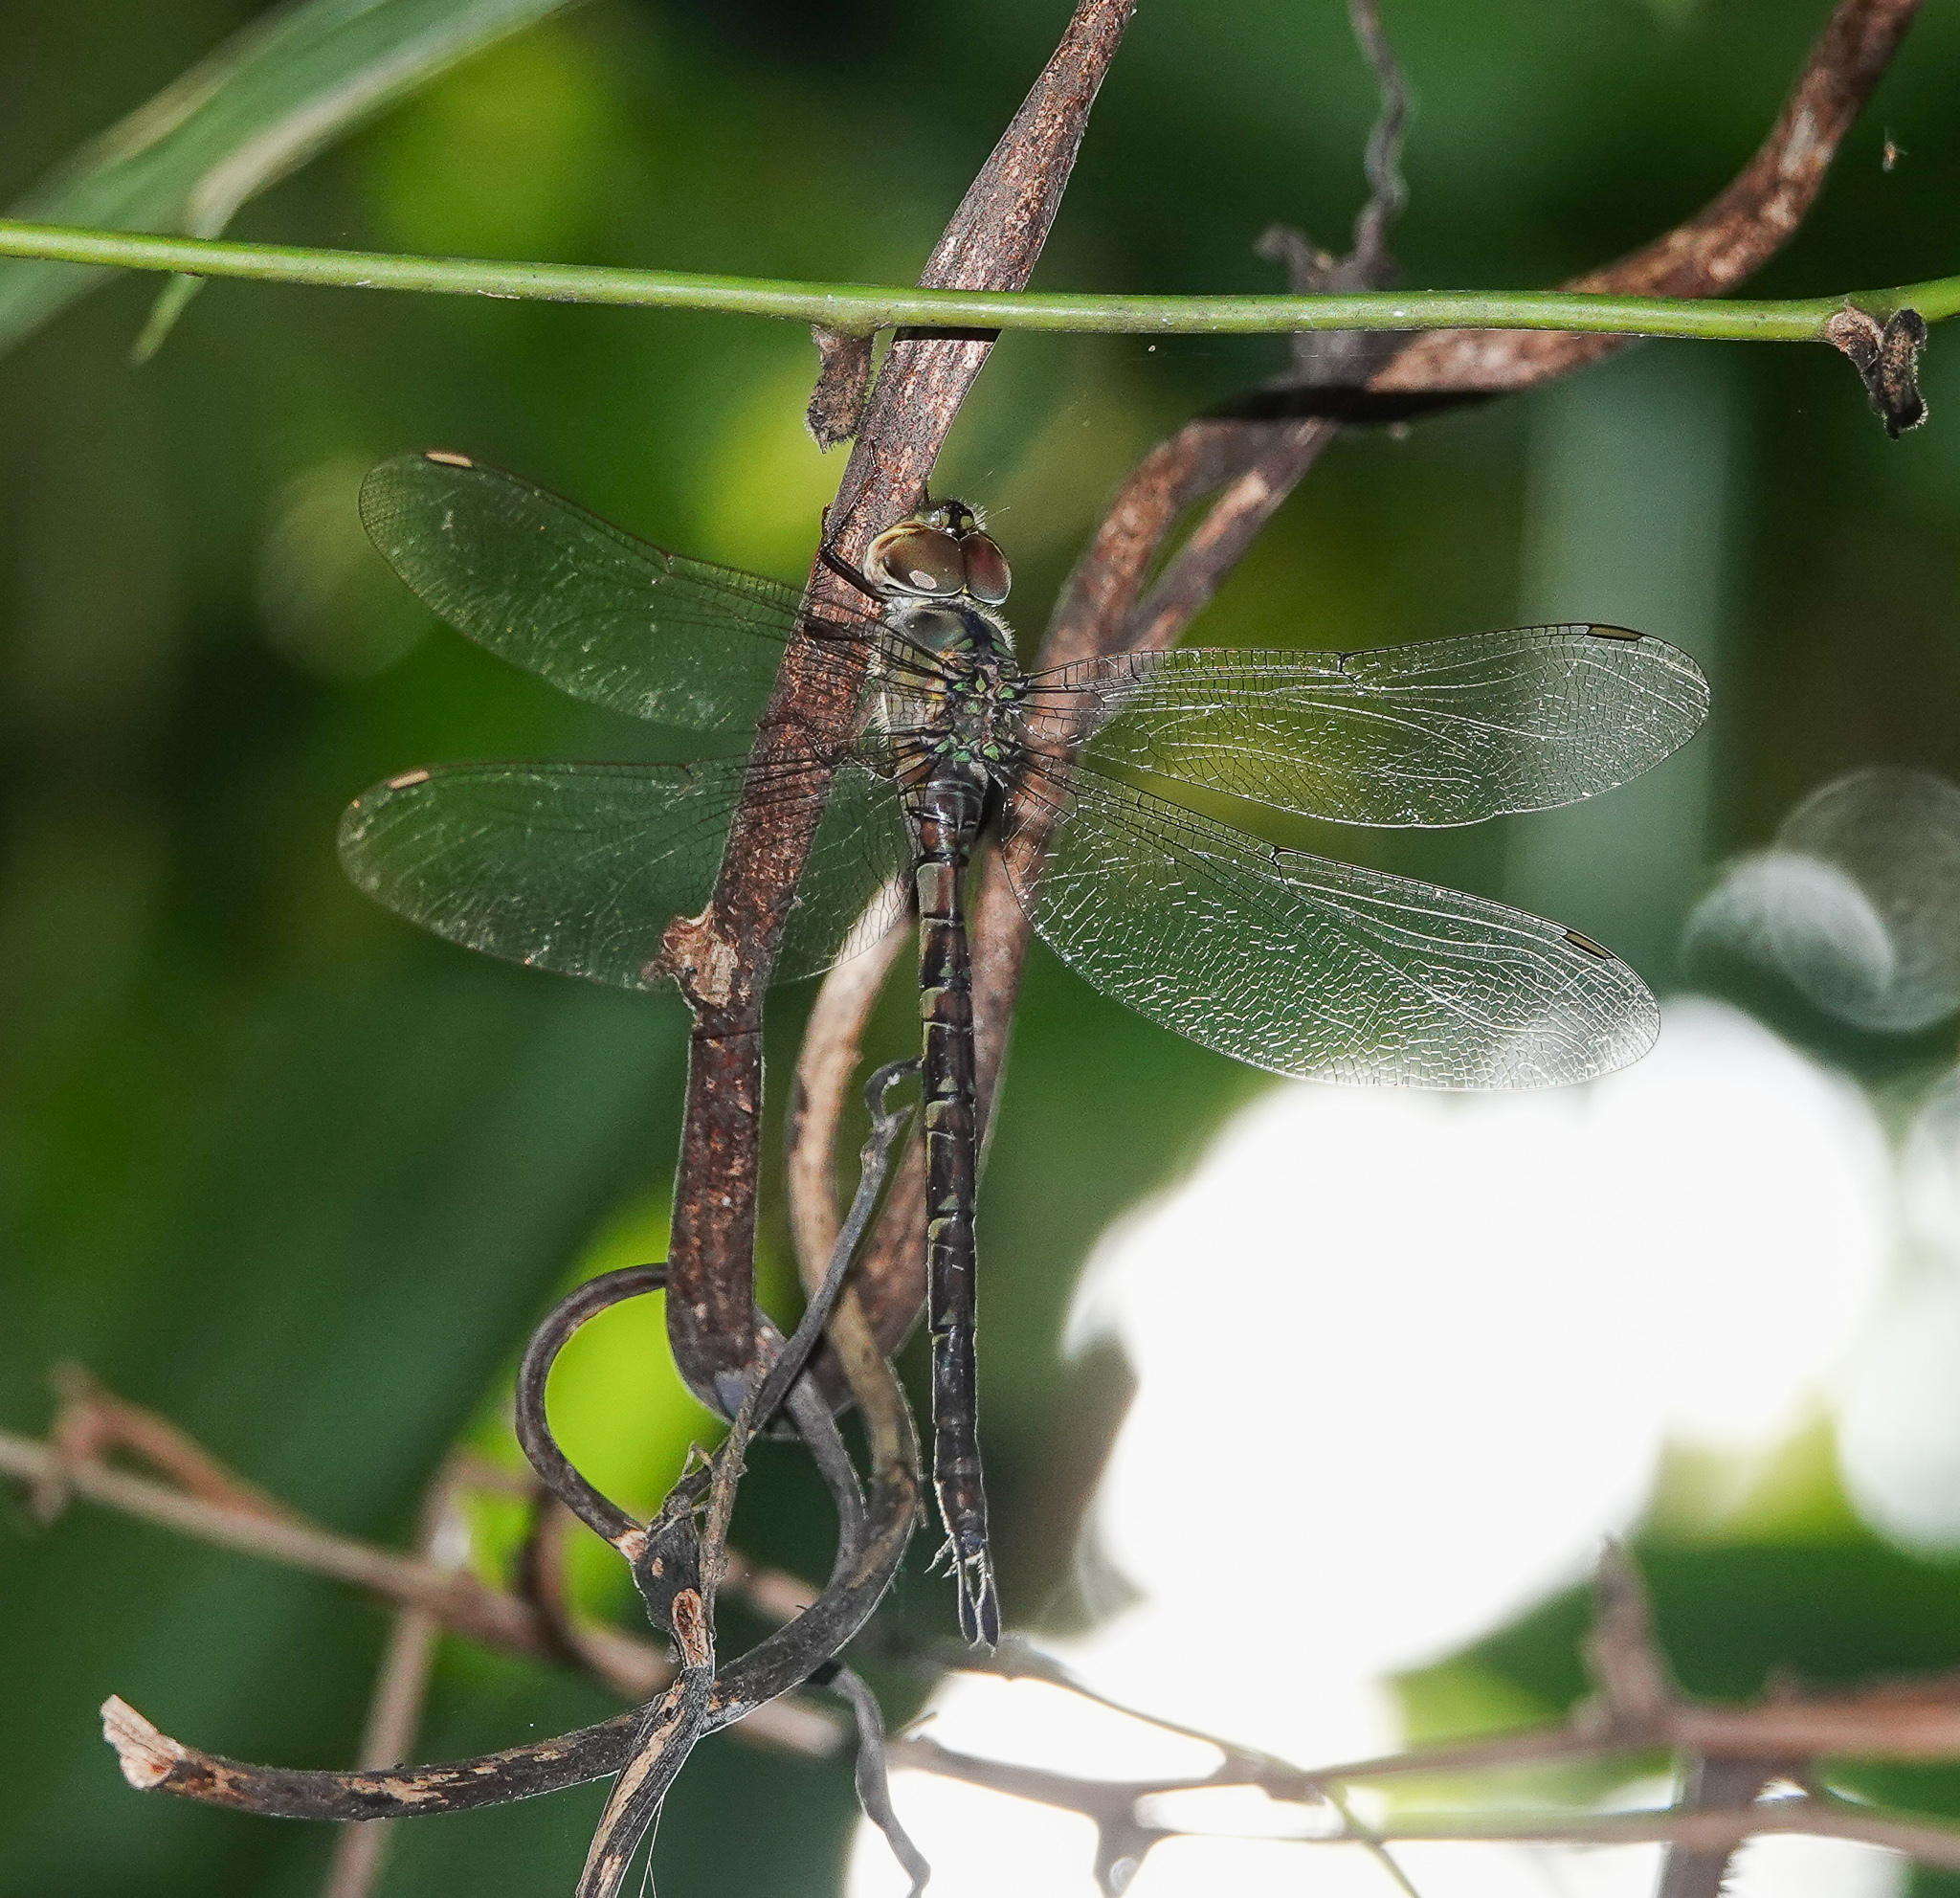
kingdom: Animalia
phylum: Arthropoda
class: Insecta
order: Odonata
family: Aeshnidae
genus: Gynacantha
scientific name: Gynacantha subinterrupta
